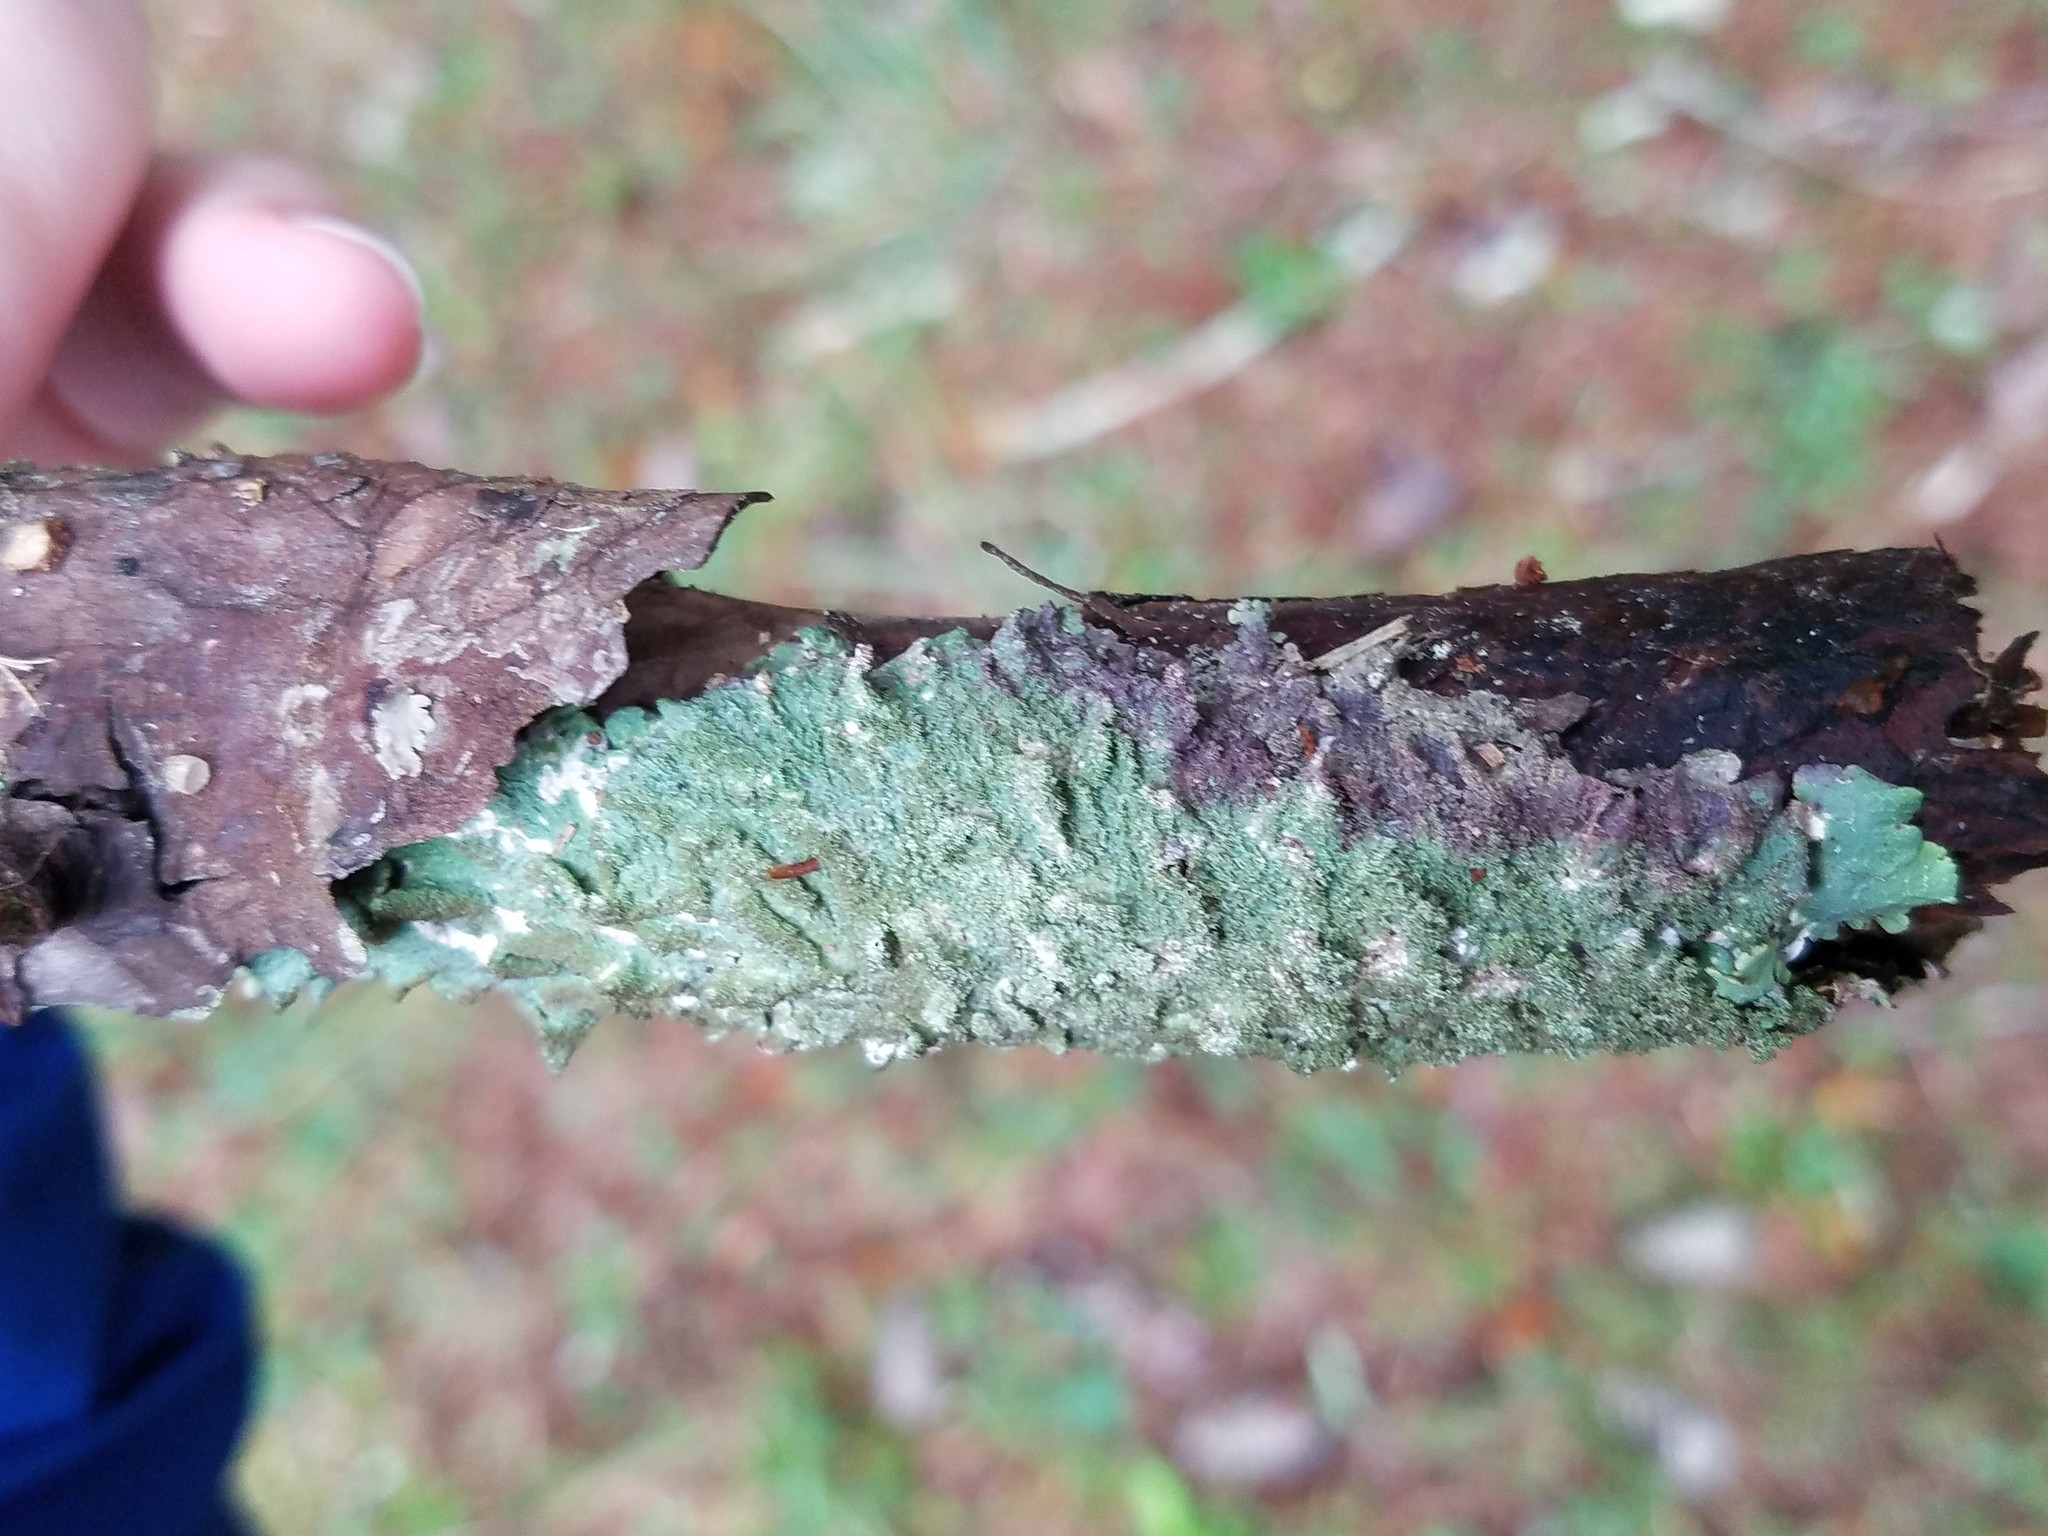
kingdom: Fungi
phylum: Ascomycota
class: Lecanoromycetes
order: Lecanorales
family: Parmeliaceae
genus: Canoparmelia
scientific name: Canoparmelia caroliniana
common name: Carolina shield lichen
